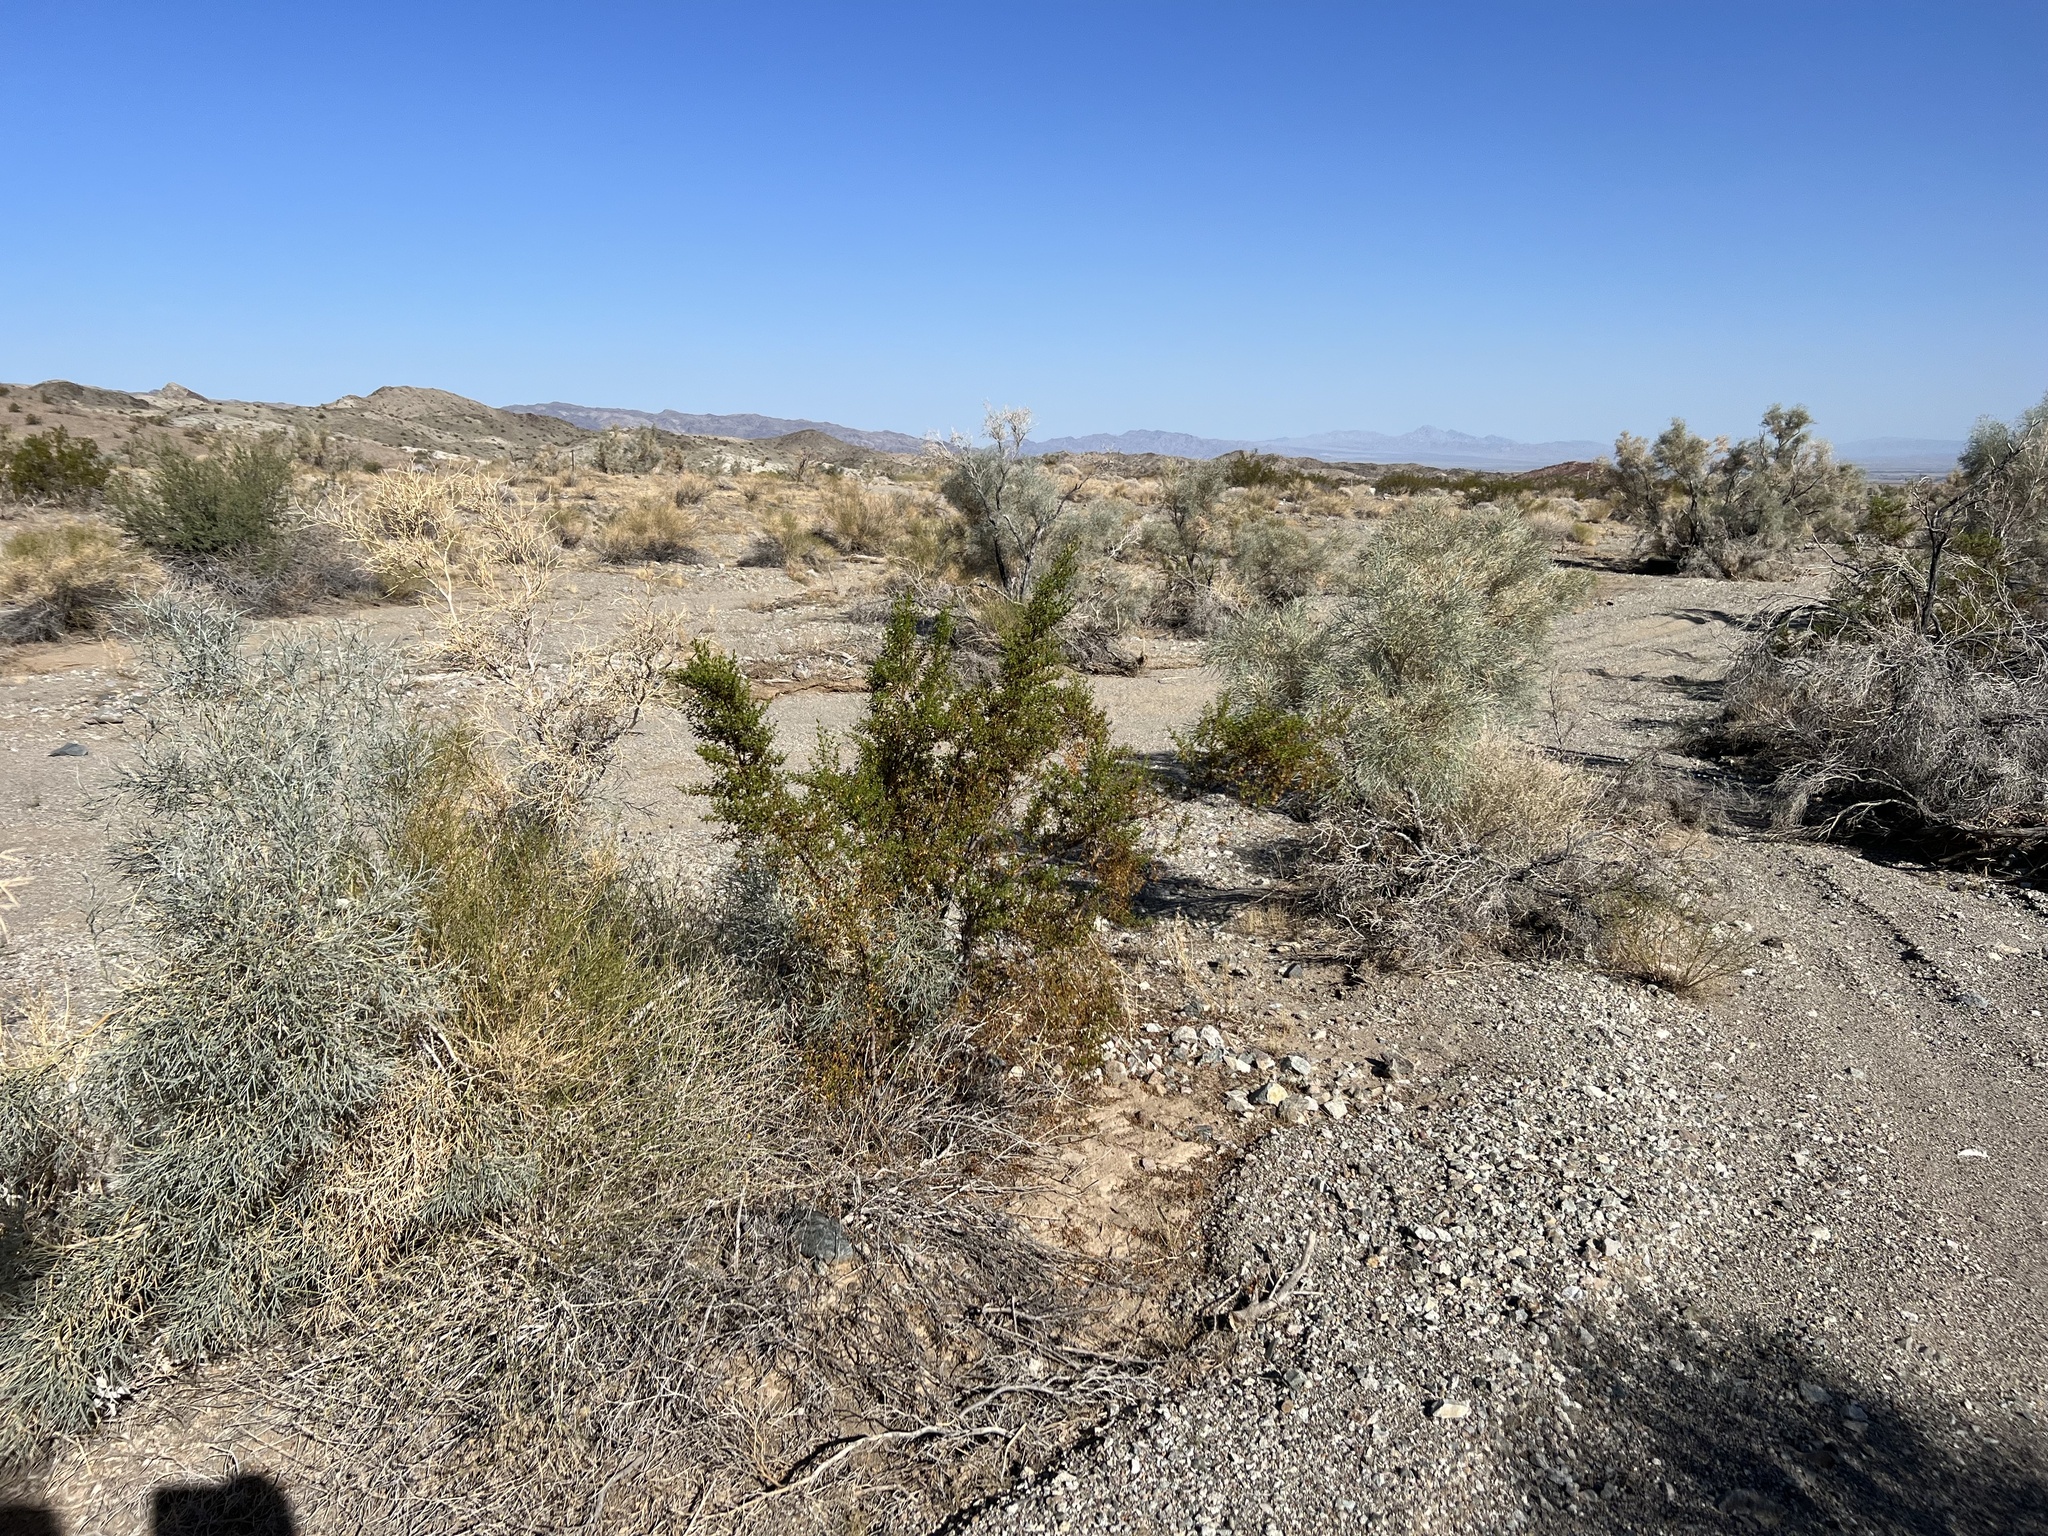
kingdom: Plantae
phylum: Tracheophyta
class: Magnoliopsida
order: Zygophyllales
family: Zygophyllaceae
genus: Larrea
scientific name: Larrea tridentata
